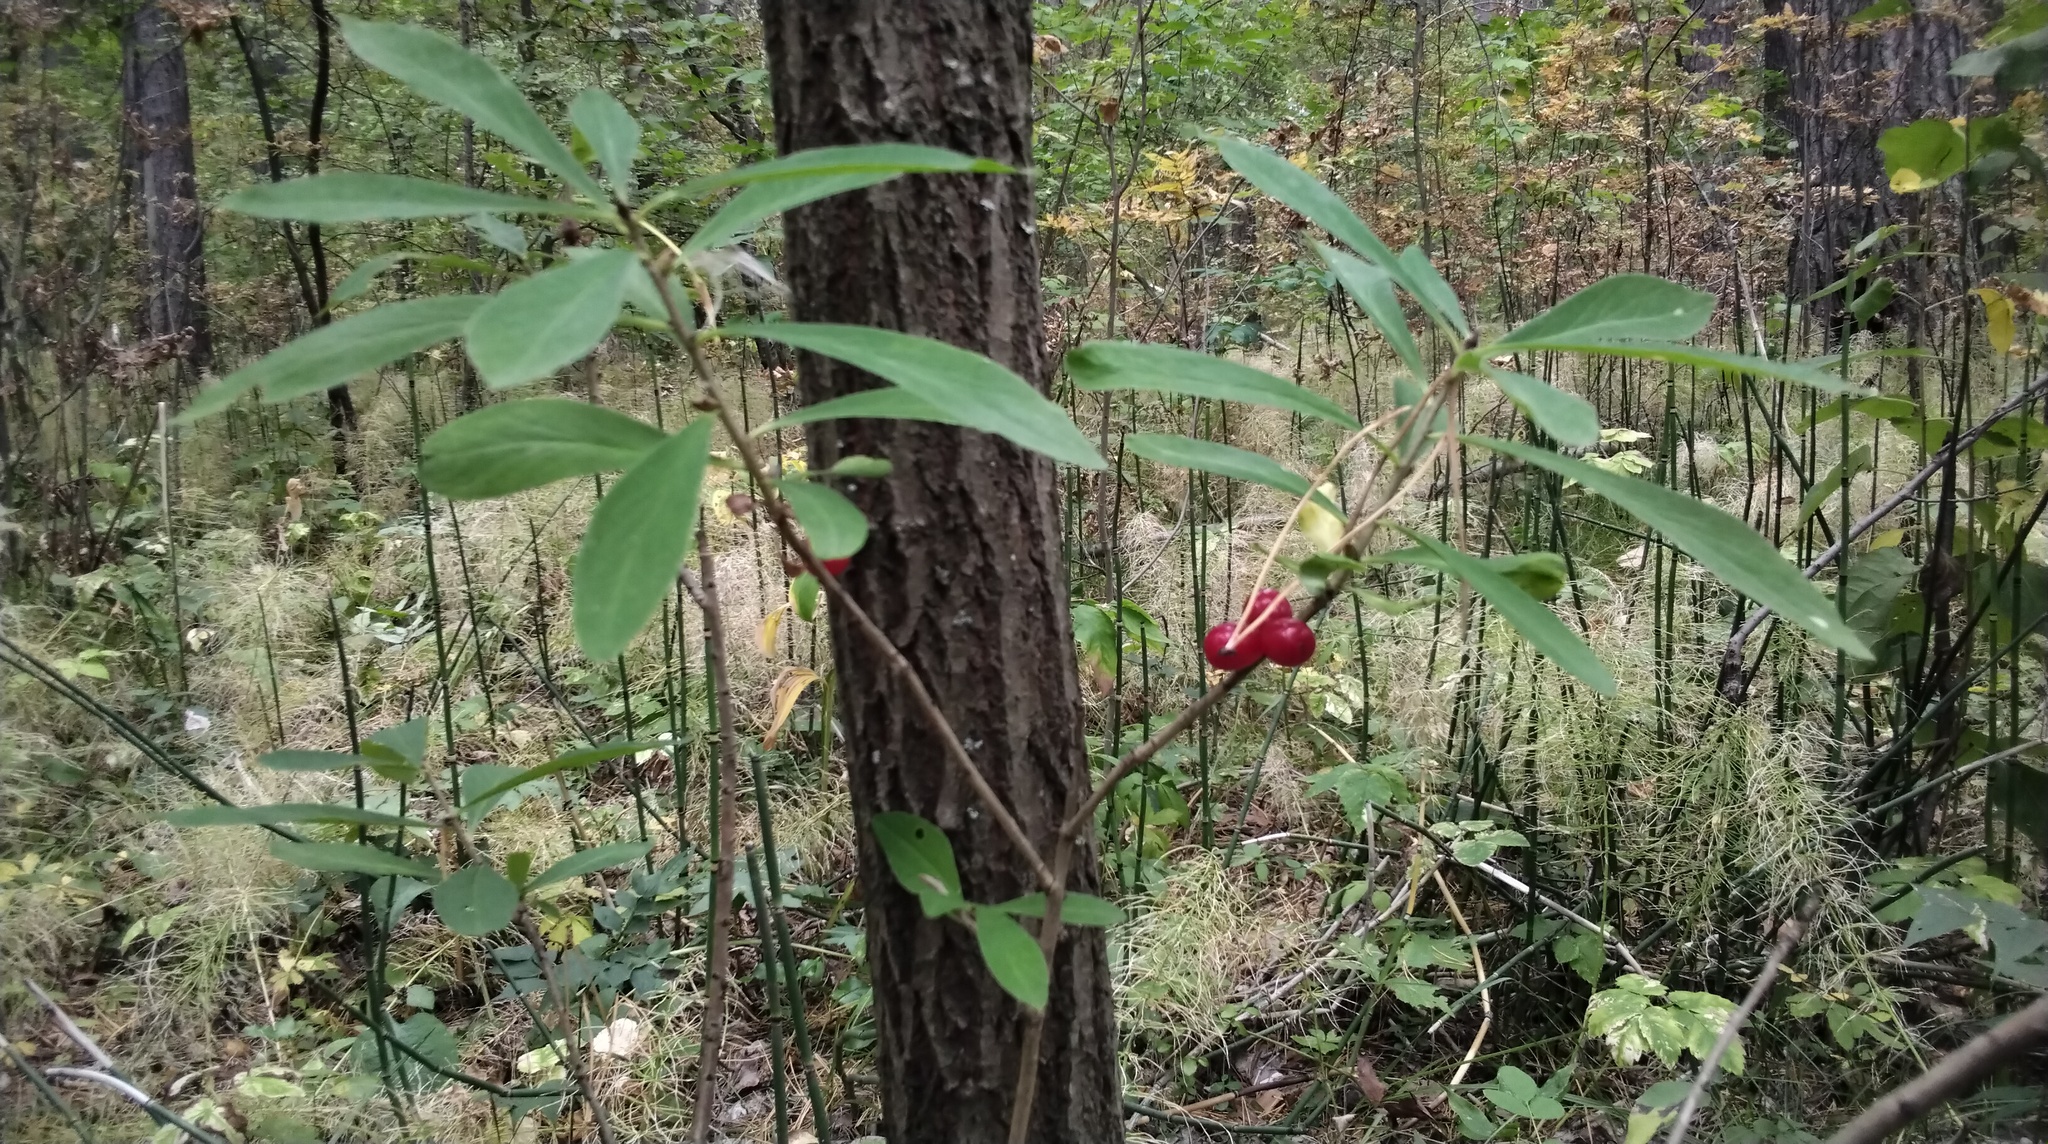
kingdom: Plantae
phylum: Tracheophyta
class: Magnoliopsida
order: Malvales
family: Thymelaeaceae
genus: Daphne
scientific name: Daphne mezereum
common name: Mezereon
